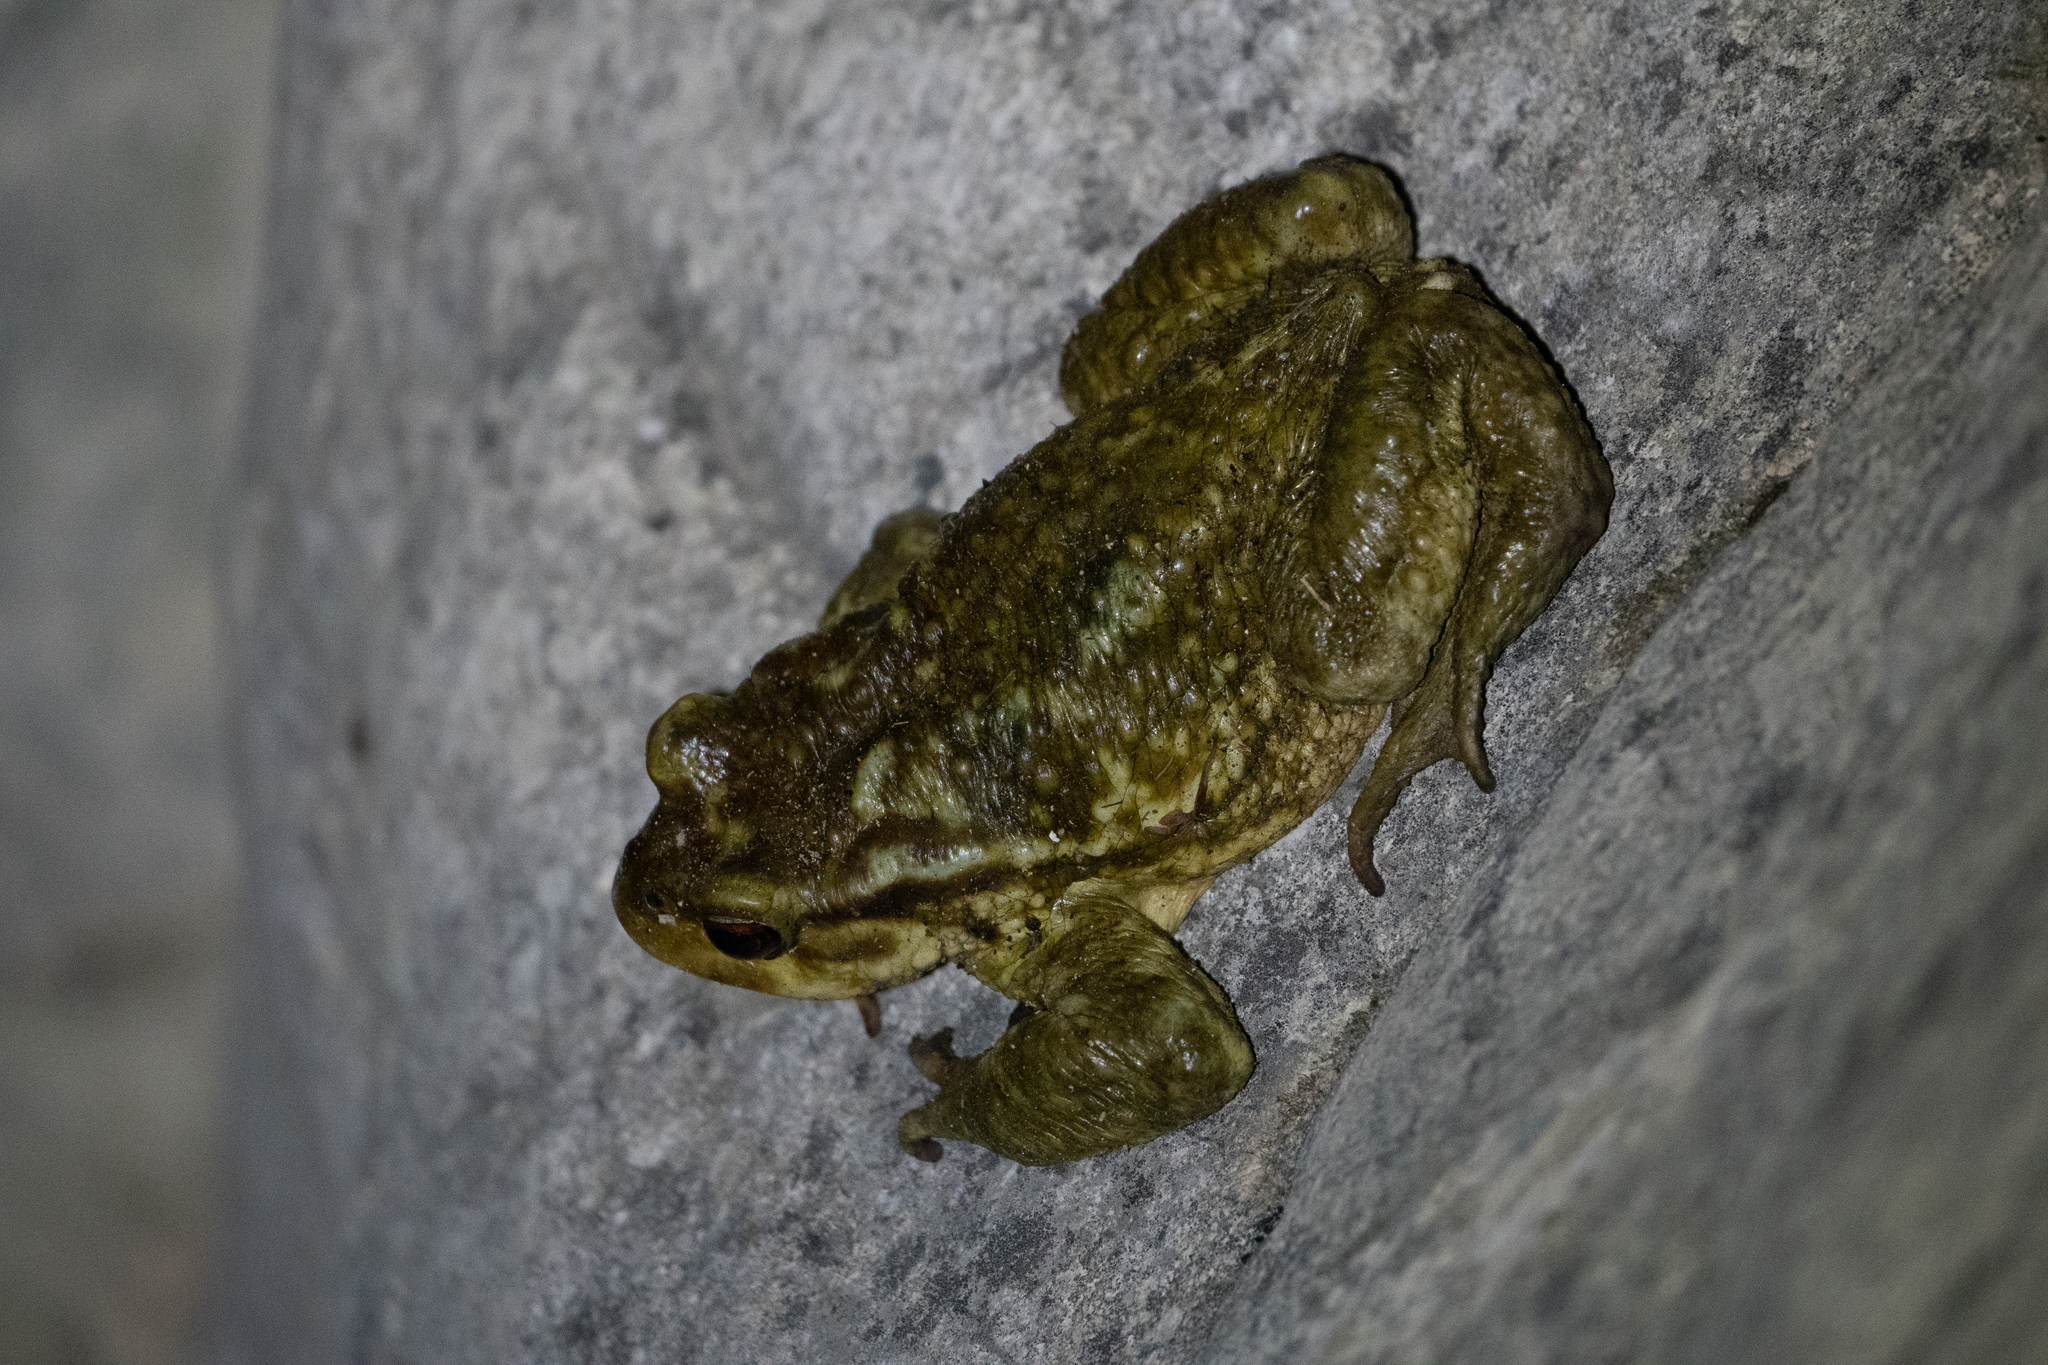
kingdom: Animalia
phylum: Chordata
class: Amphibia
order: Anura
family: Bufonidae
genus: Bufo
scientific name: Bufo spinosus
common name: Western common toad
